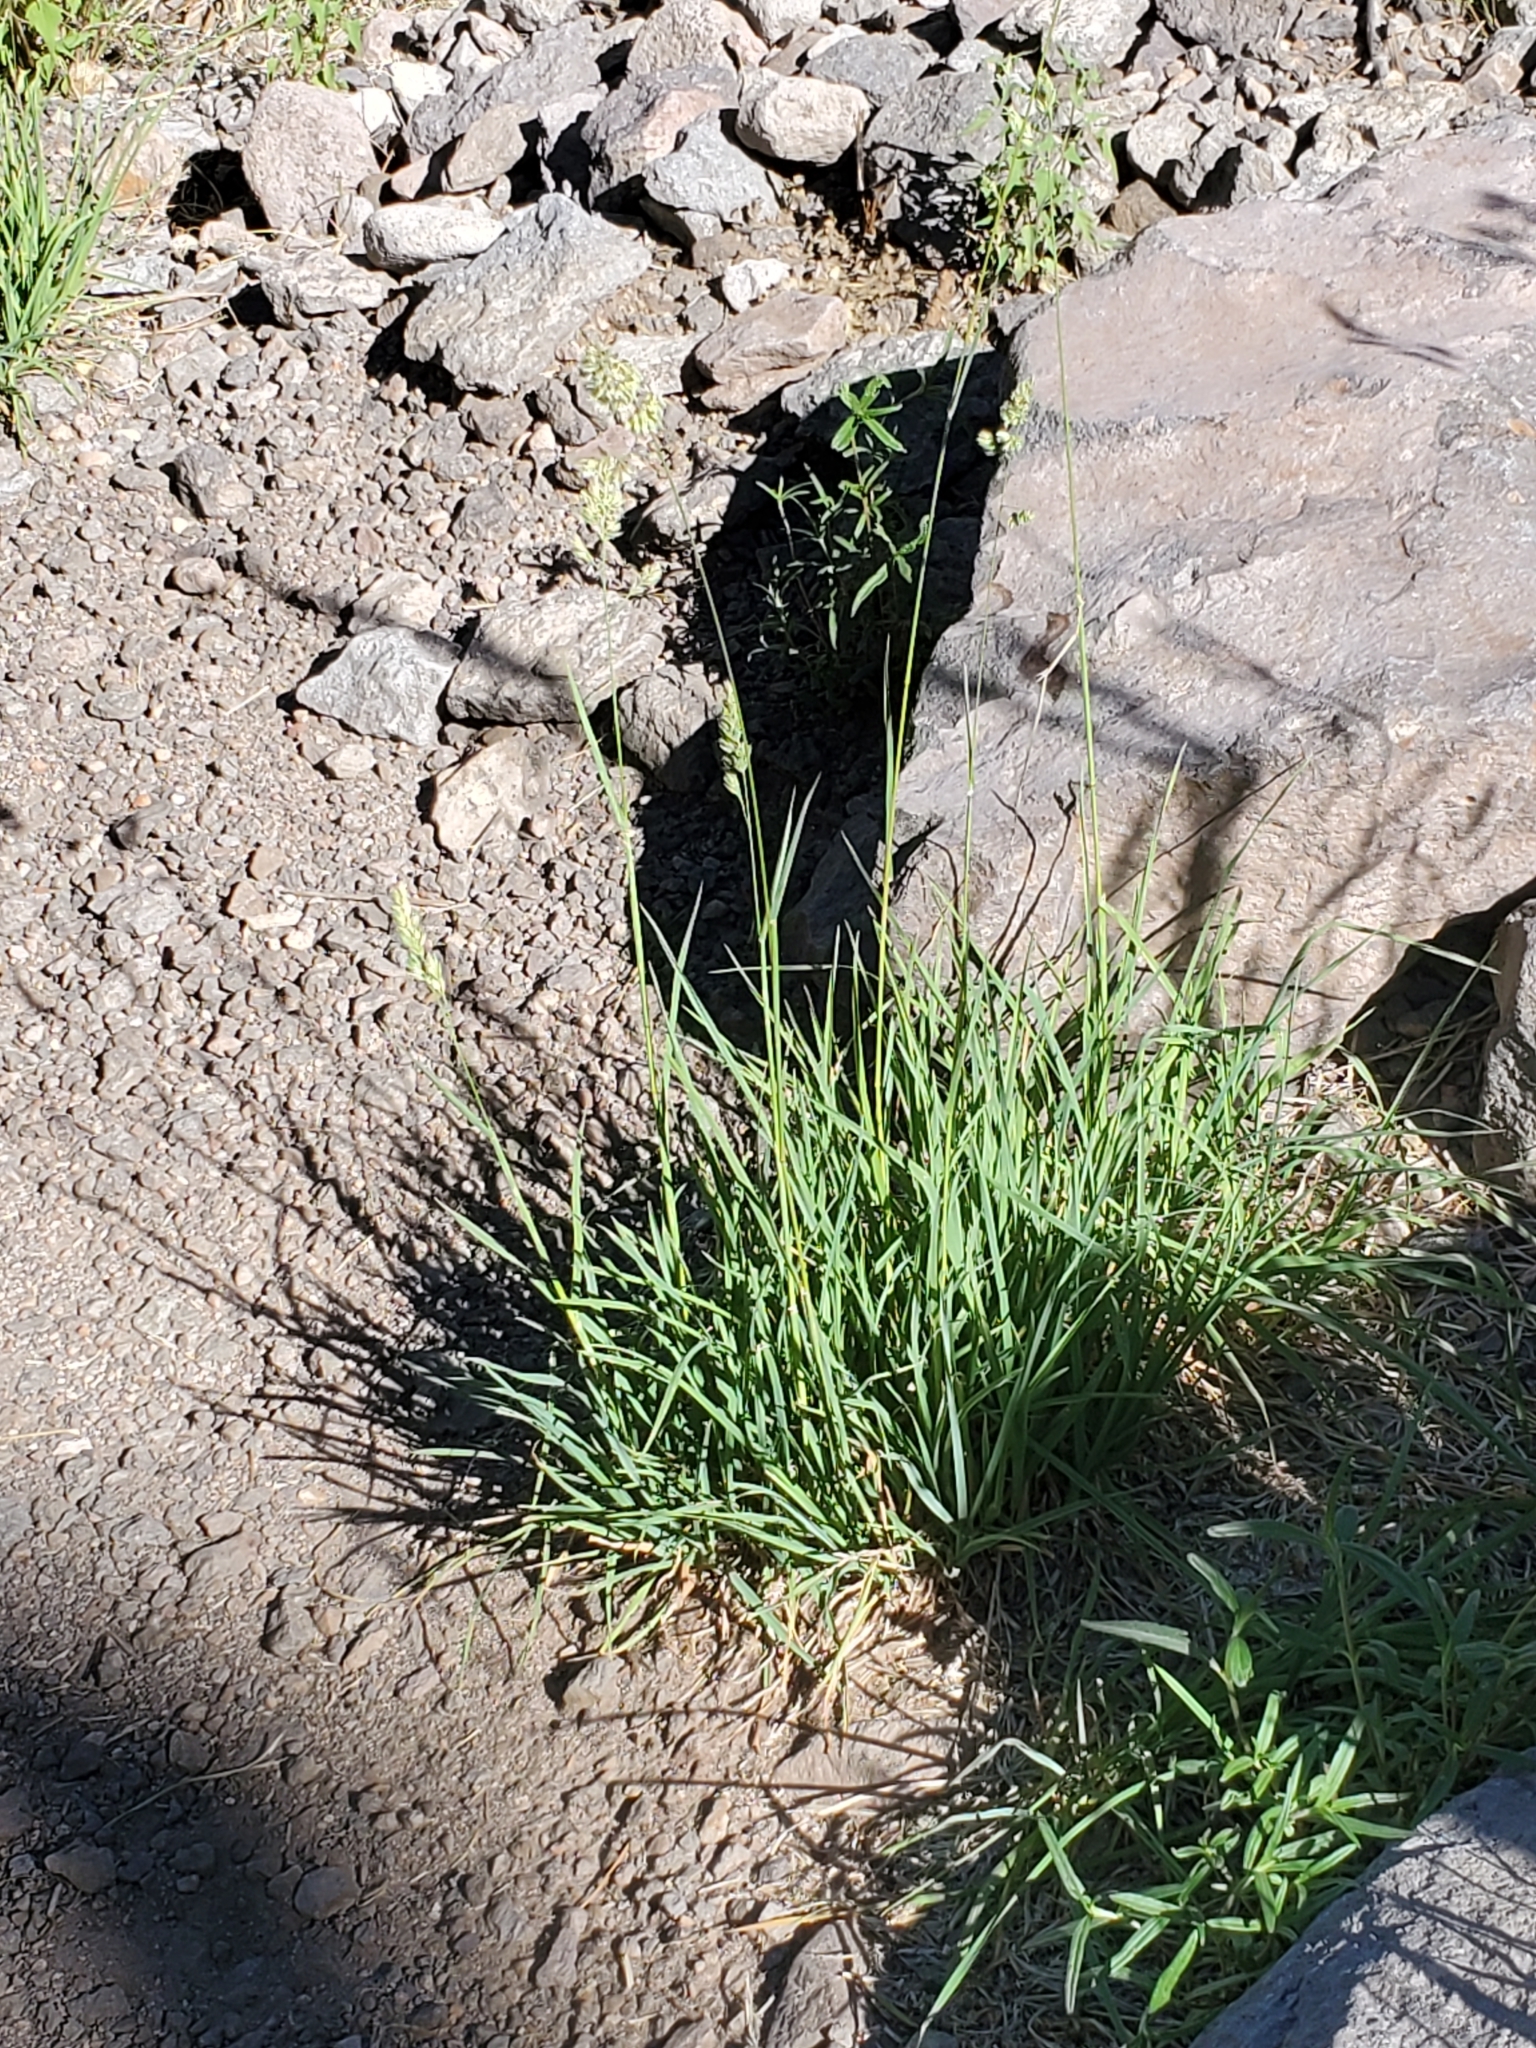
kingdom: Plantae
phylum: Tracheophyta
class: Liliopsida
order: Poales
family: Poaceae
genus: Dactylis
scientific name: Dactylis glomerata
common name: Orchardgrass
